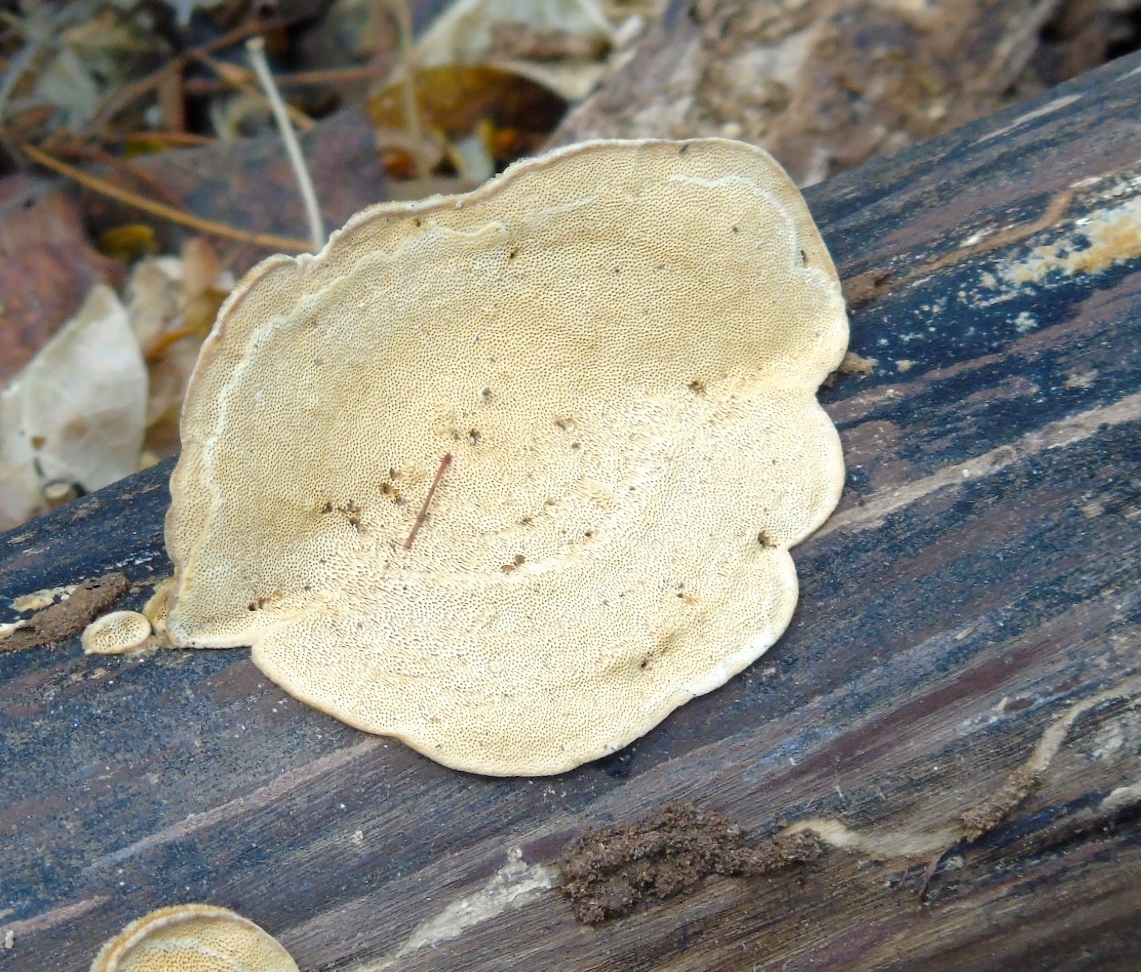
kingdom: Fungi
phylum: Basidiomycota
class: Agaricomycetes
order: Polyporales
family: Polyporaceae
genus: Trametes
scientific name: Trametes
